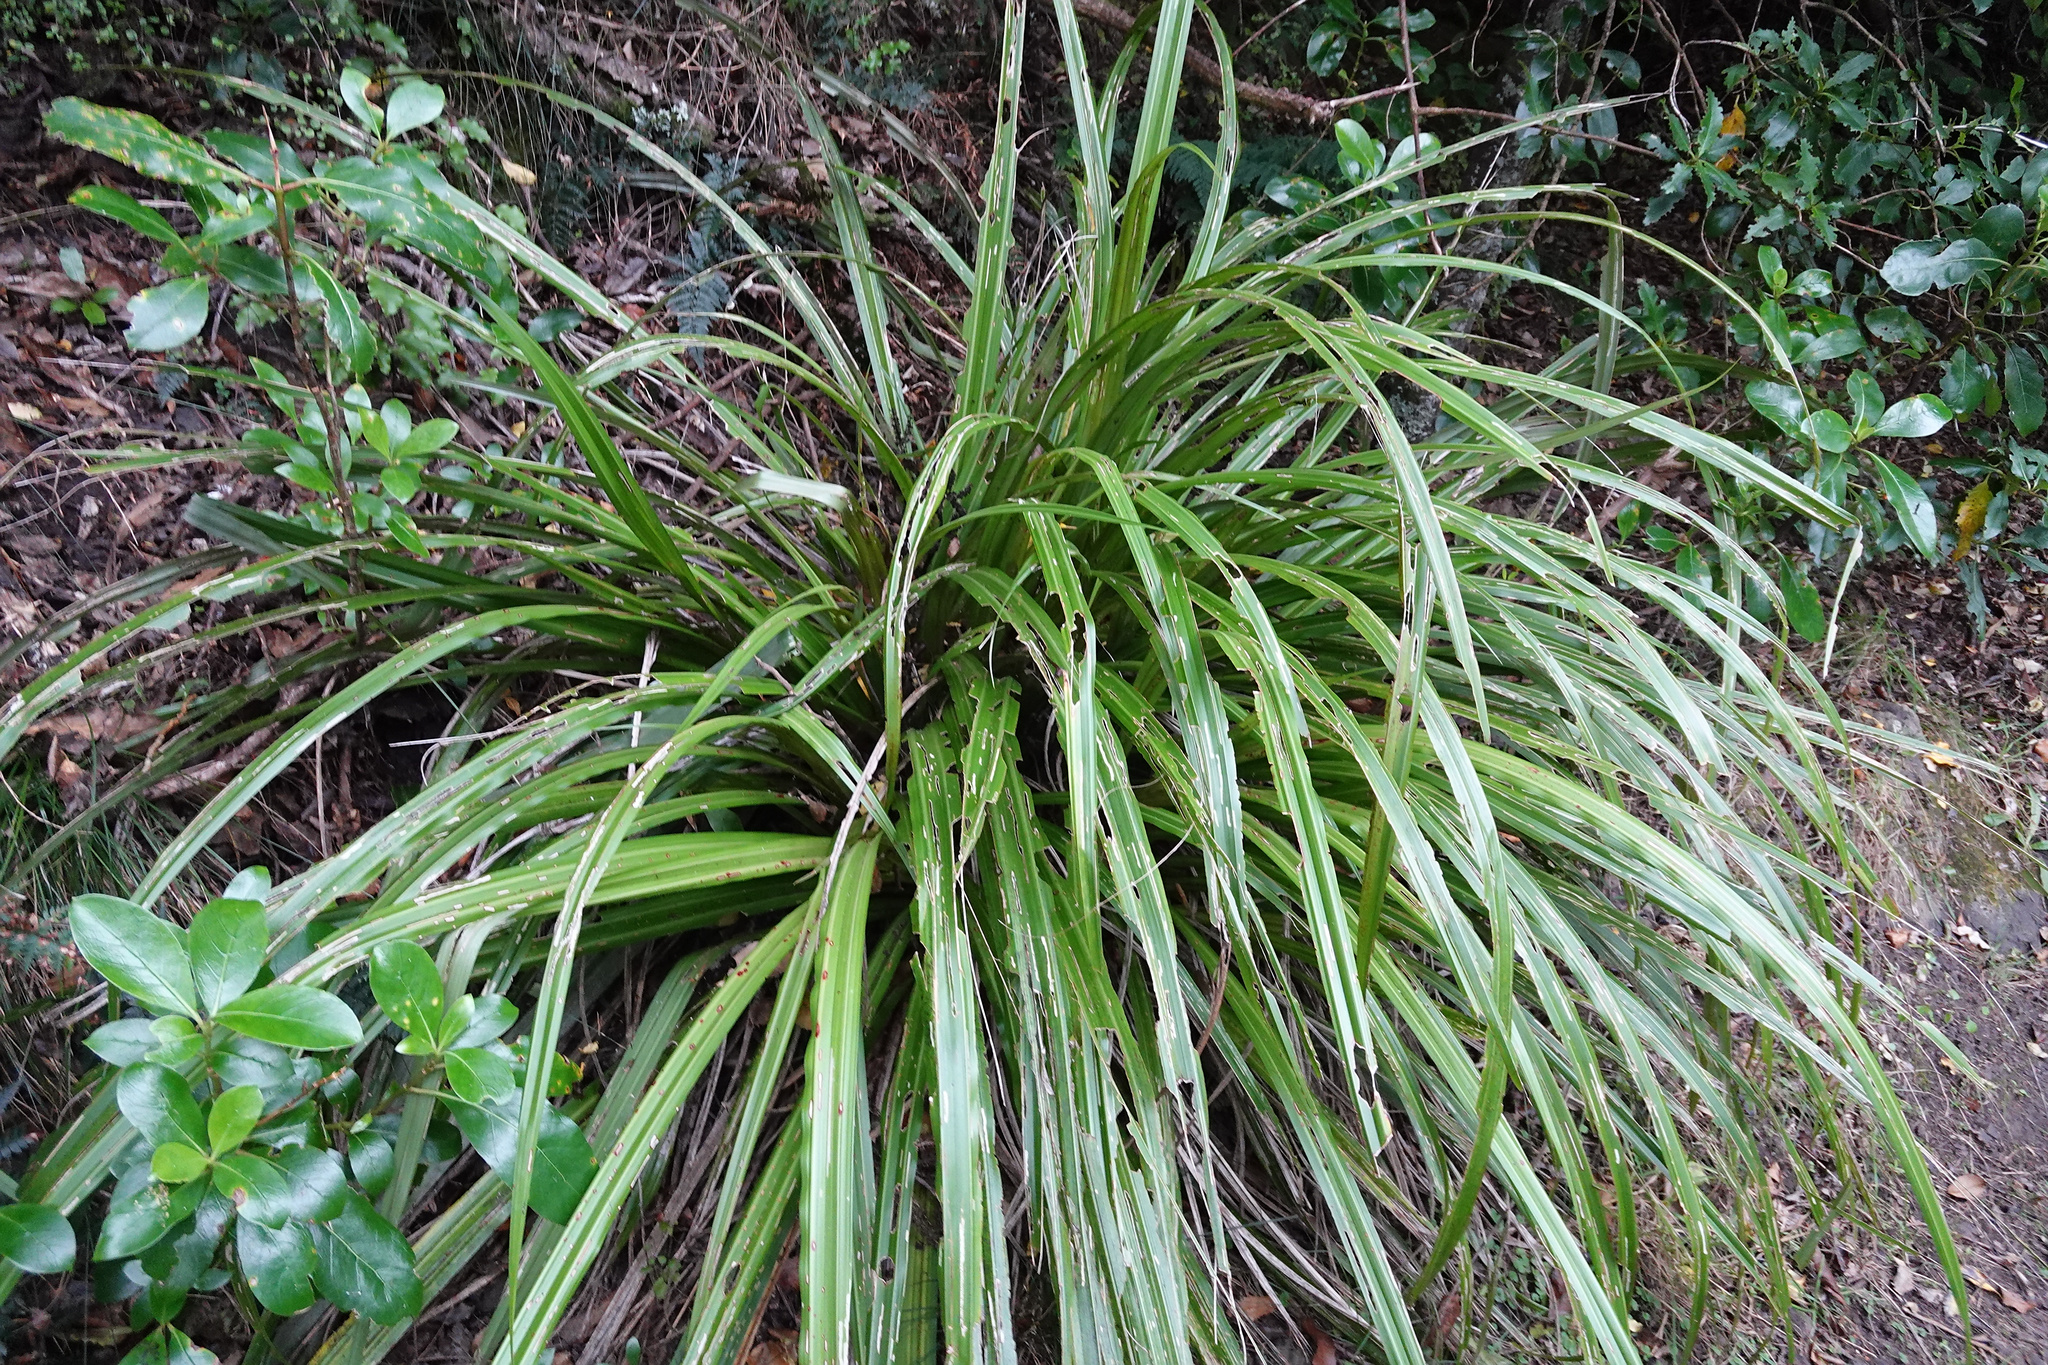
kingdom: Plantae
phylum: Tracheophyta
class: Liliopsida
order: Asparagales
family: Asteliaceae
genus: Astelia
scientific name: Astelia fragrans
